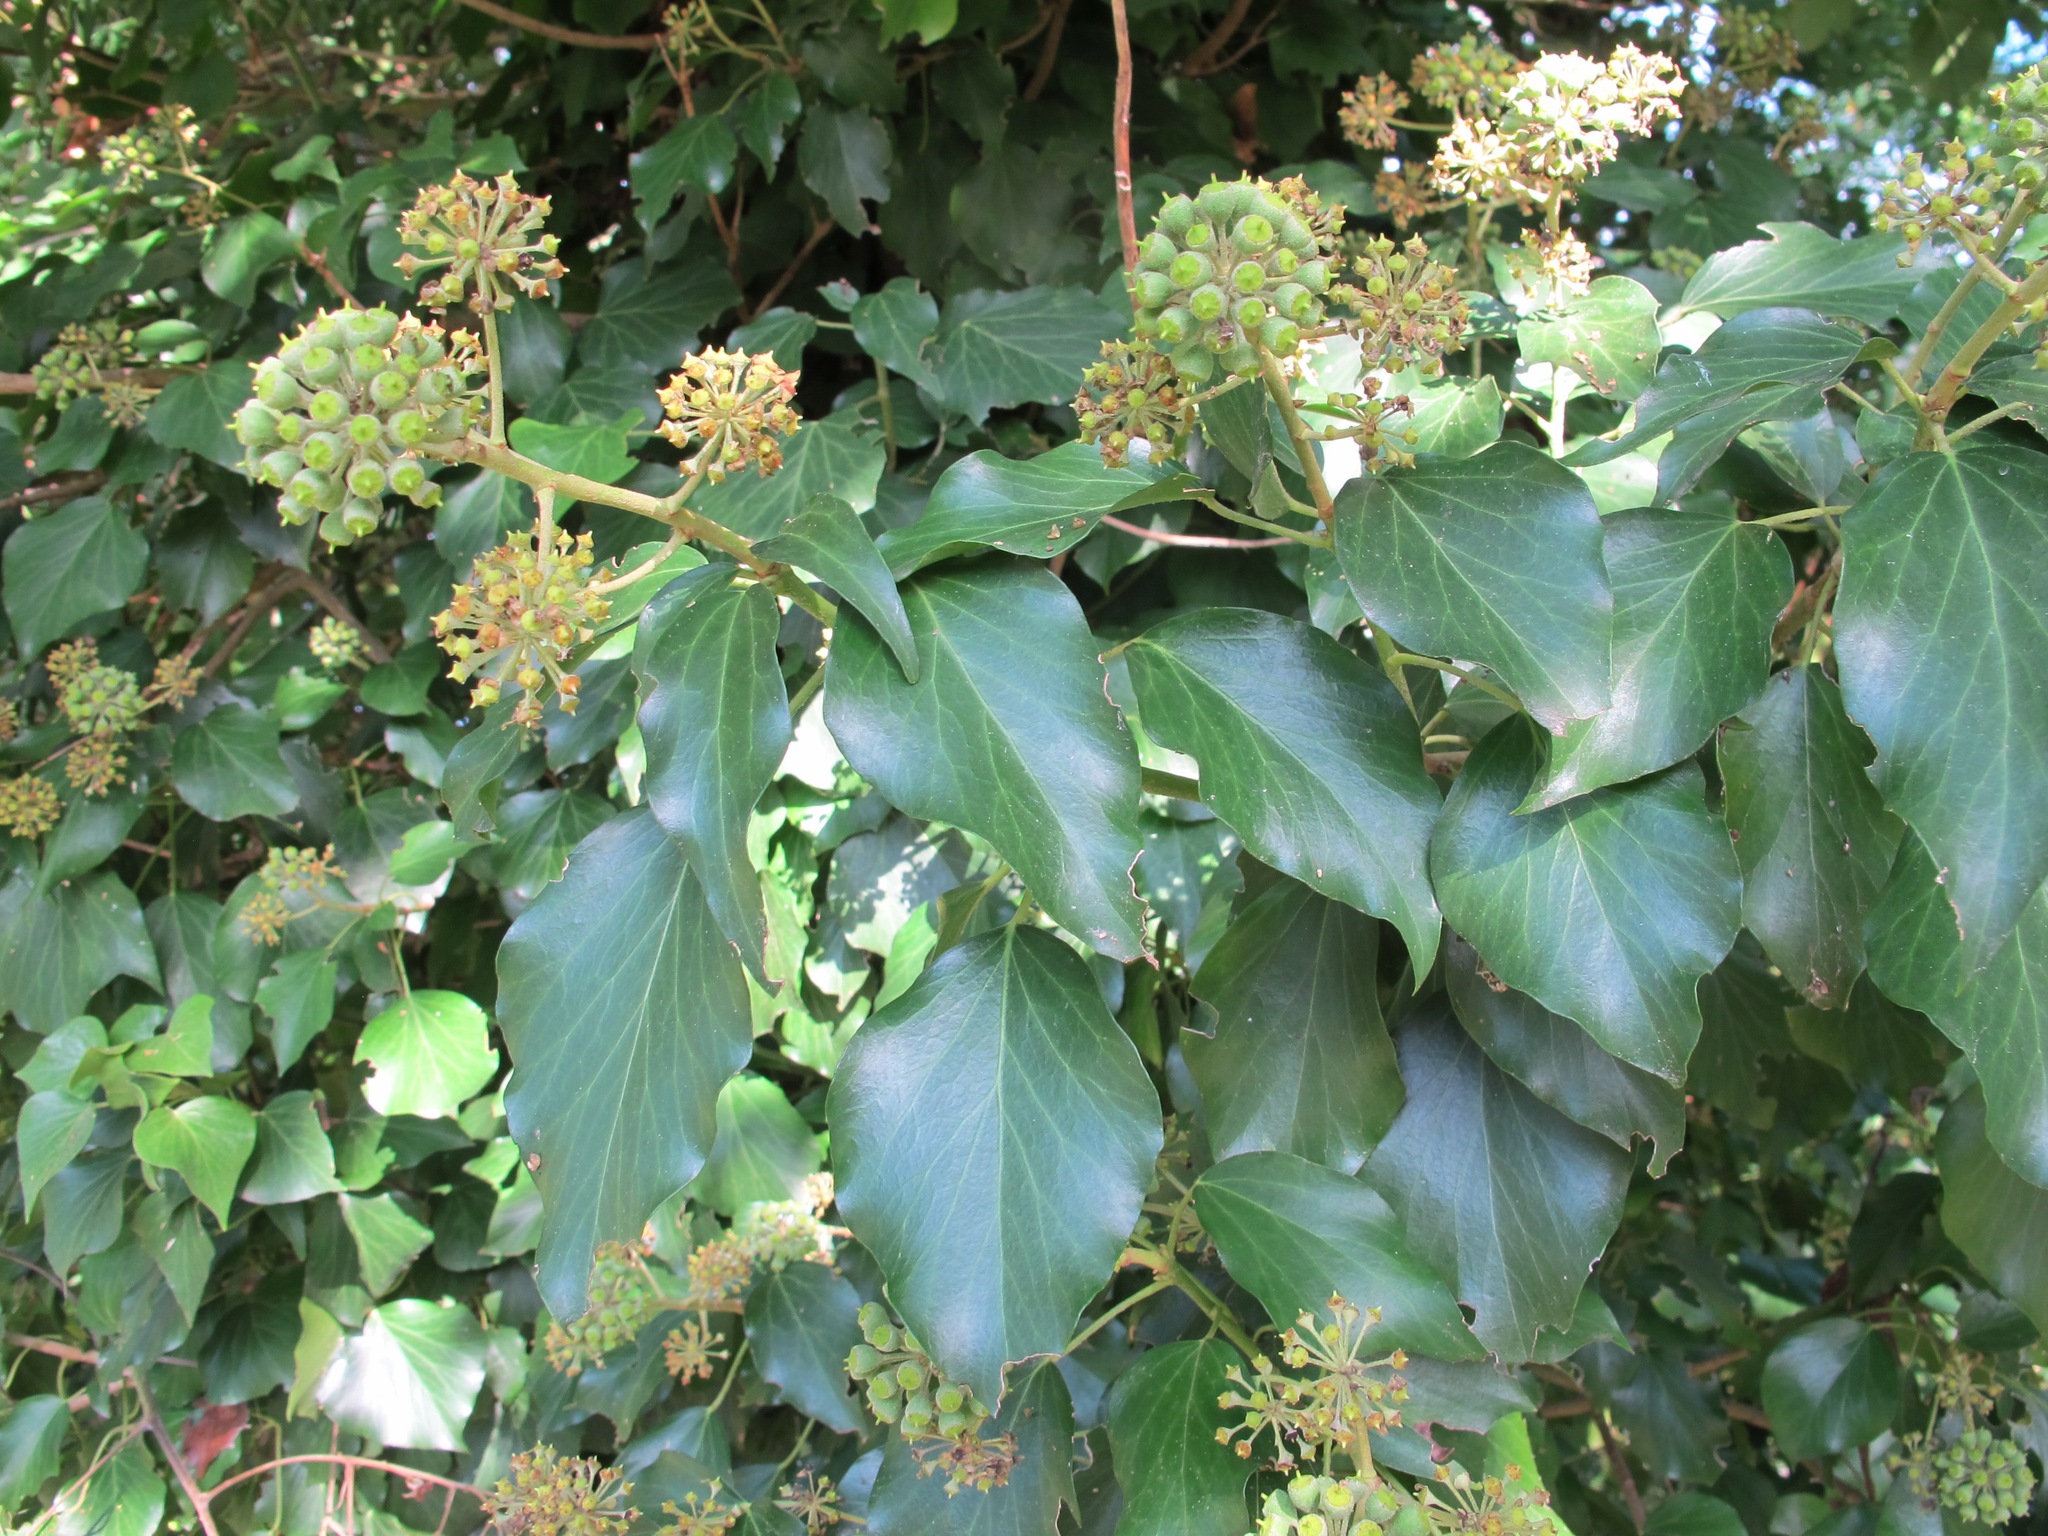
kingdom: Plantae
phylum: Tracheophyta
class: Magnoliopsida
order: Apiales
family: Araliaceae
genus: Hedera
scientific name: Hedera helix
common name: Ivy
